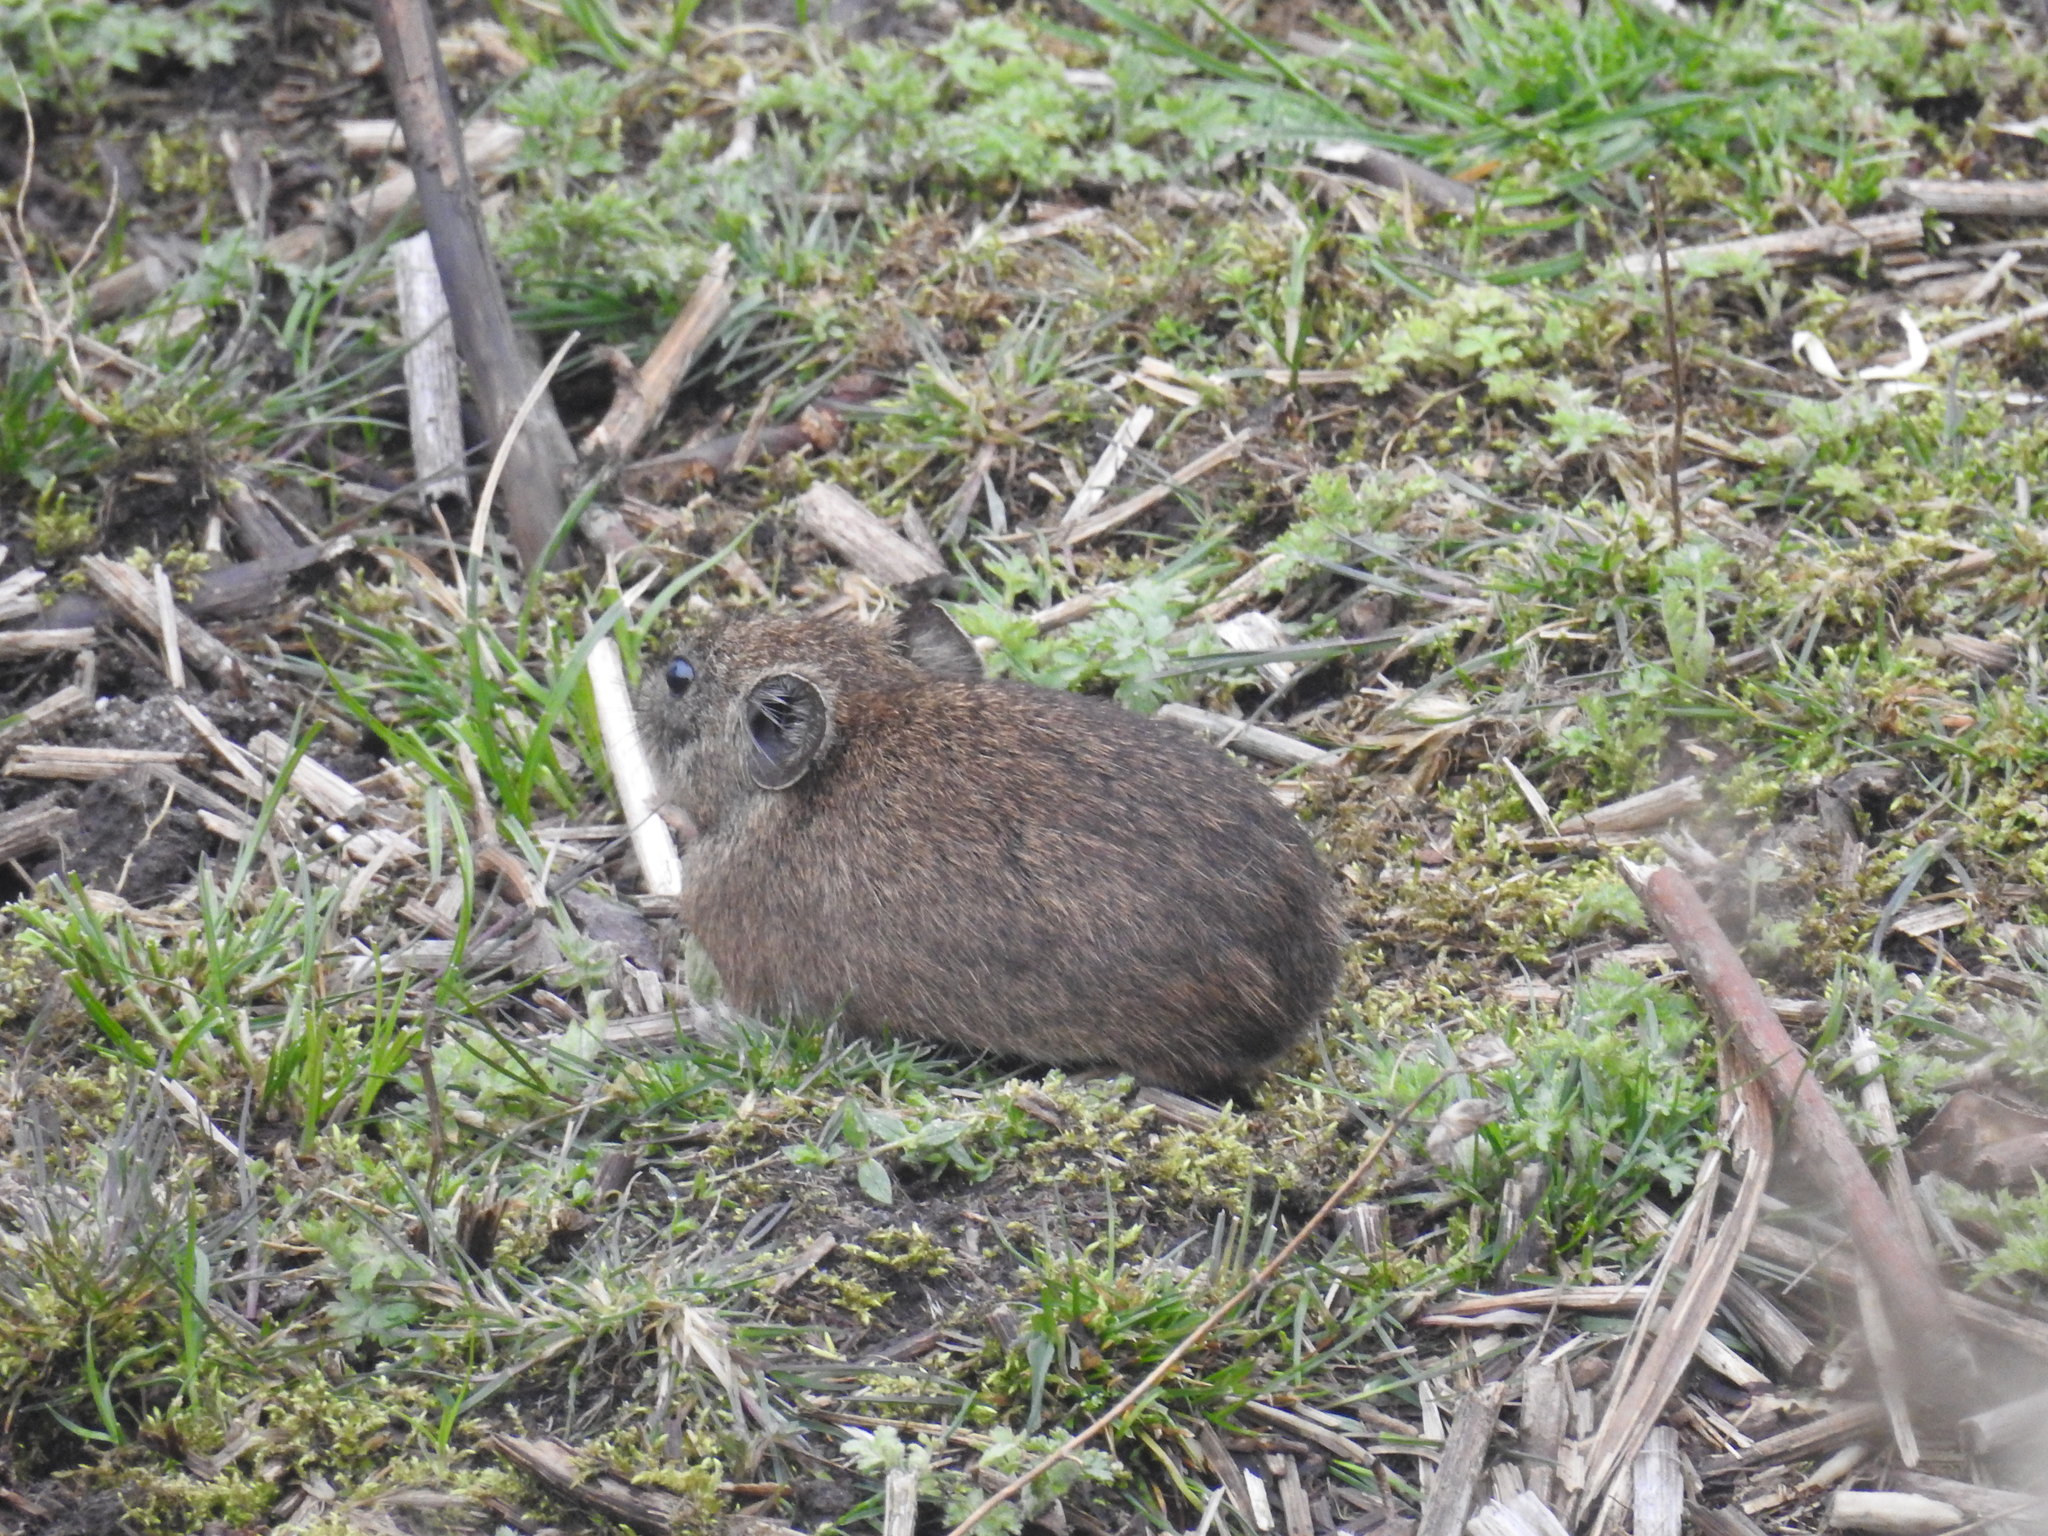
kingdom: Animalia
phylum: Chordata
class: Mammalia
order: Lagomorpha
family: Ochotonidae
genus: Ochotona
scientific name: Ochotona macrotis
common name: Large-eared pika
